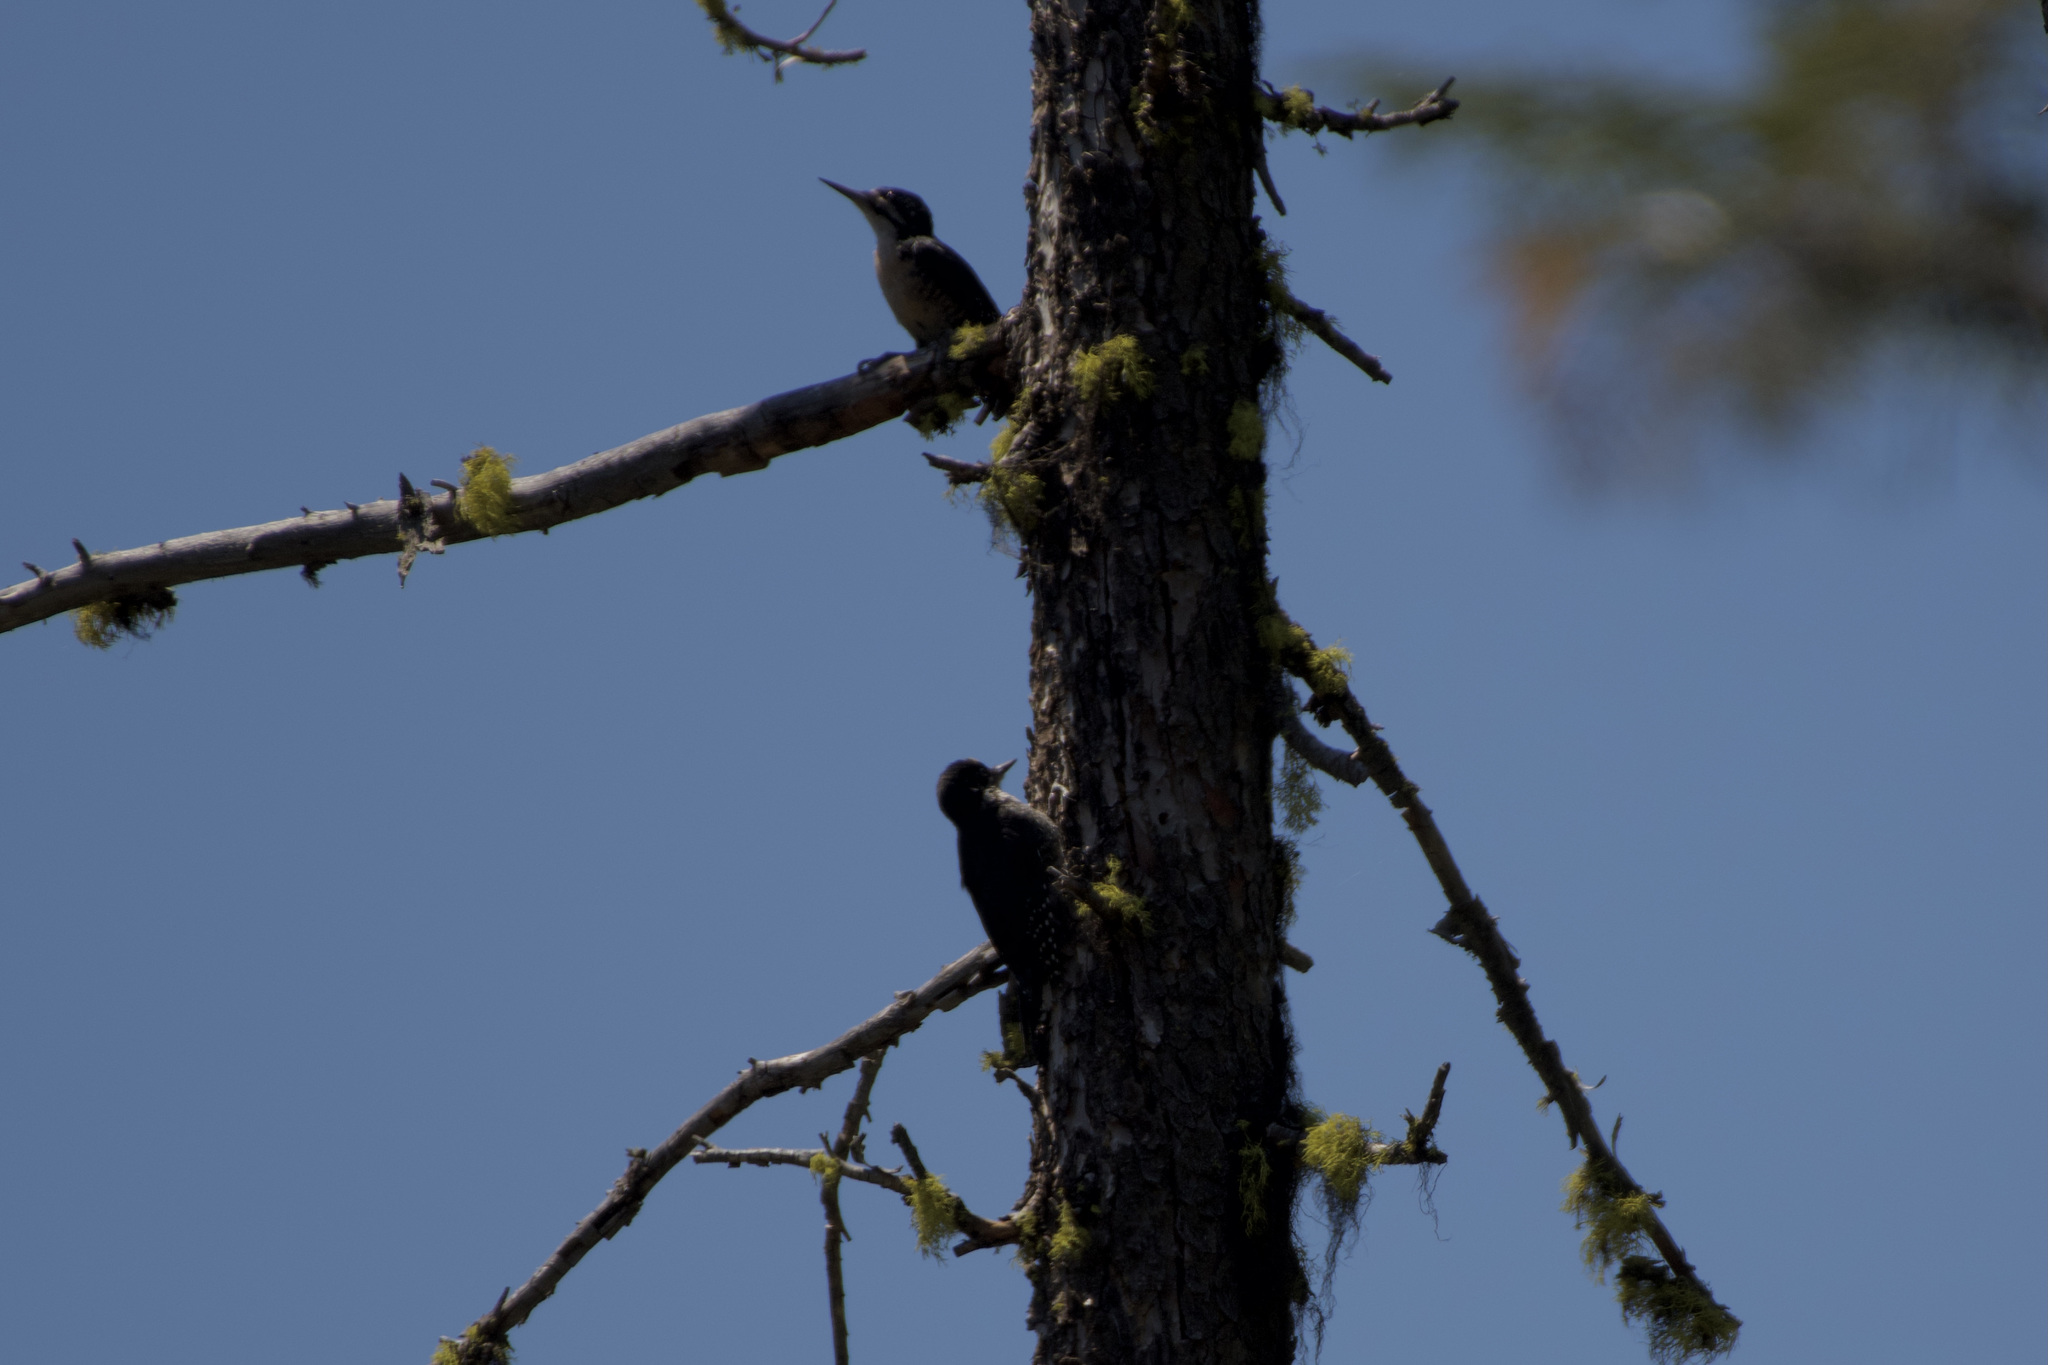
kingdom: Animalia
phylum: Chordata
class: Aves
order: Piciformes
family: Picidae
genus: Picoides
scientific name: Picoides arcticus
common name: Black-backed woodpecker
